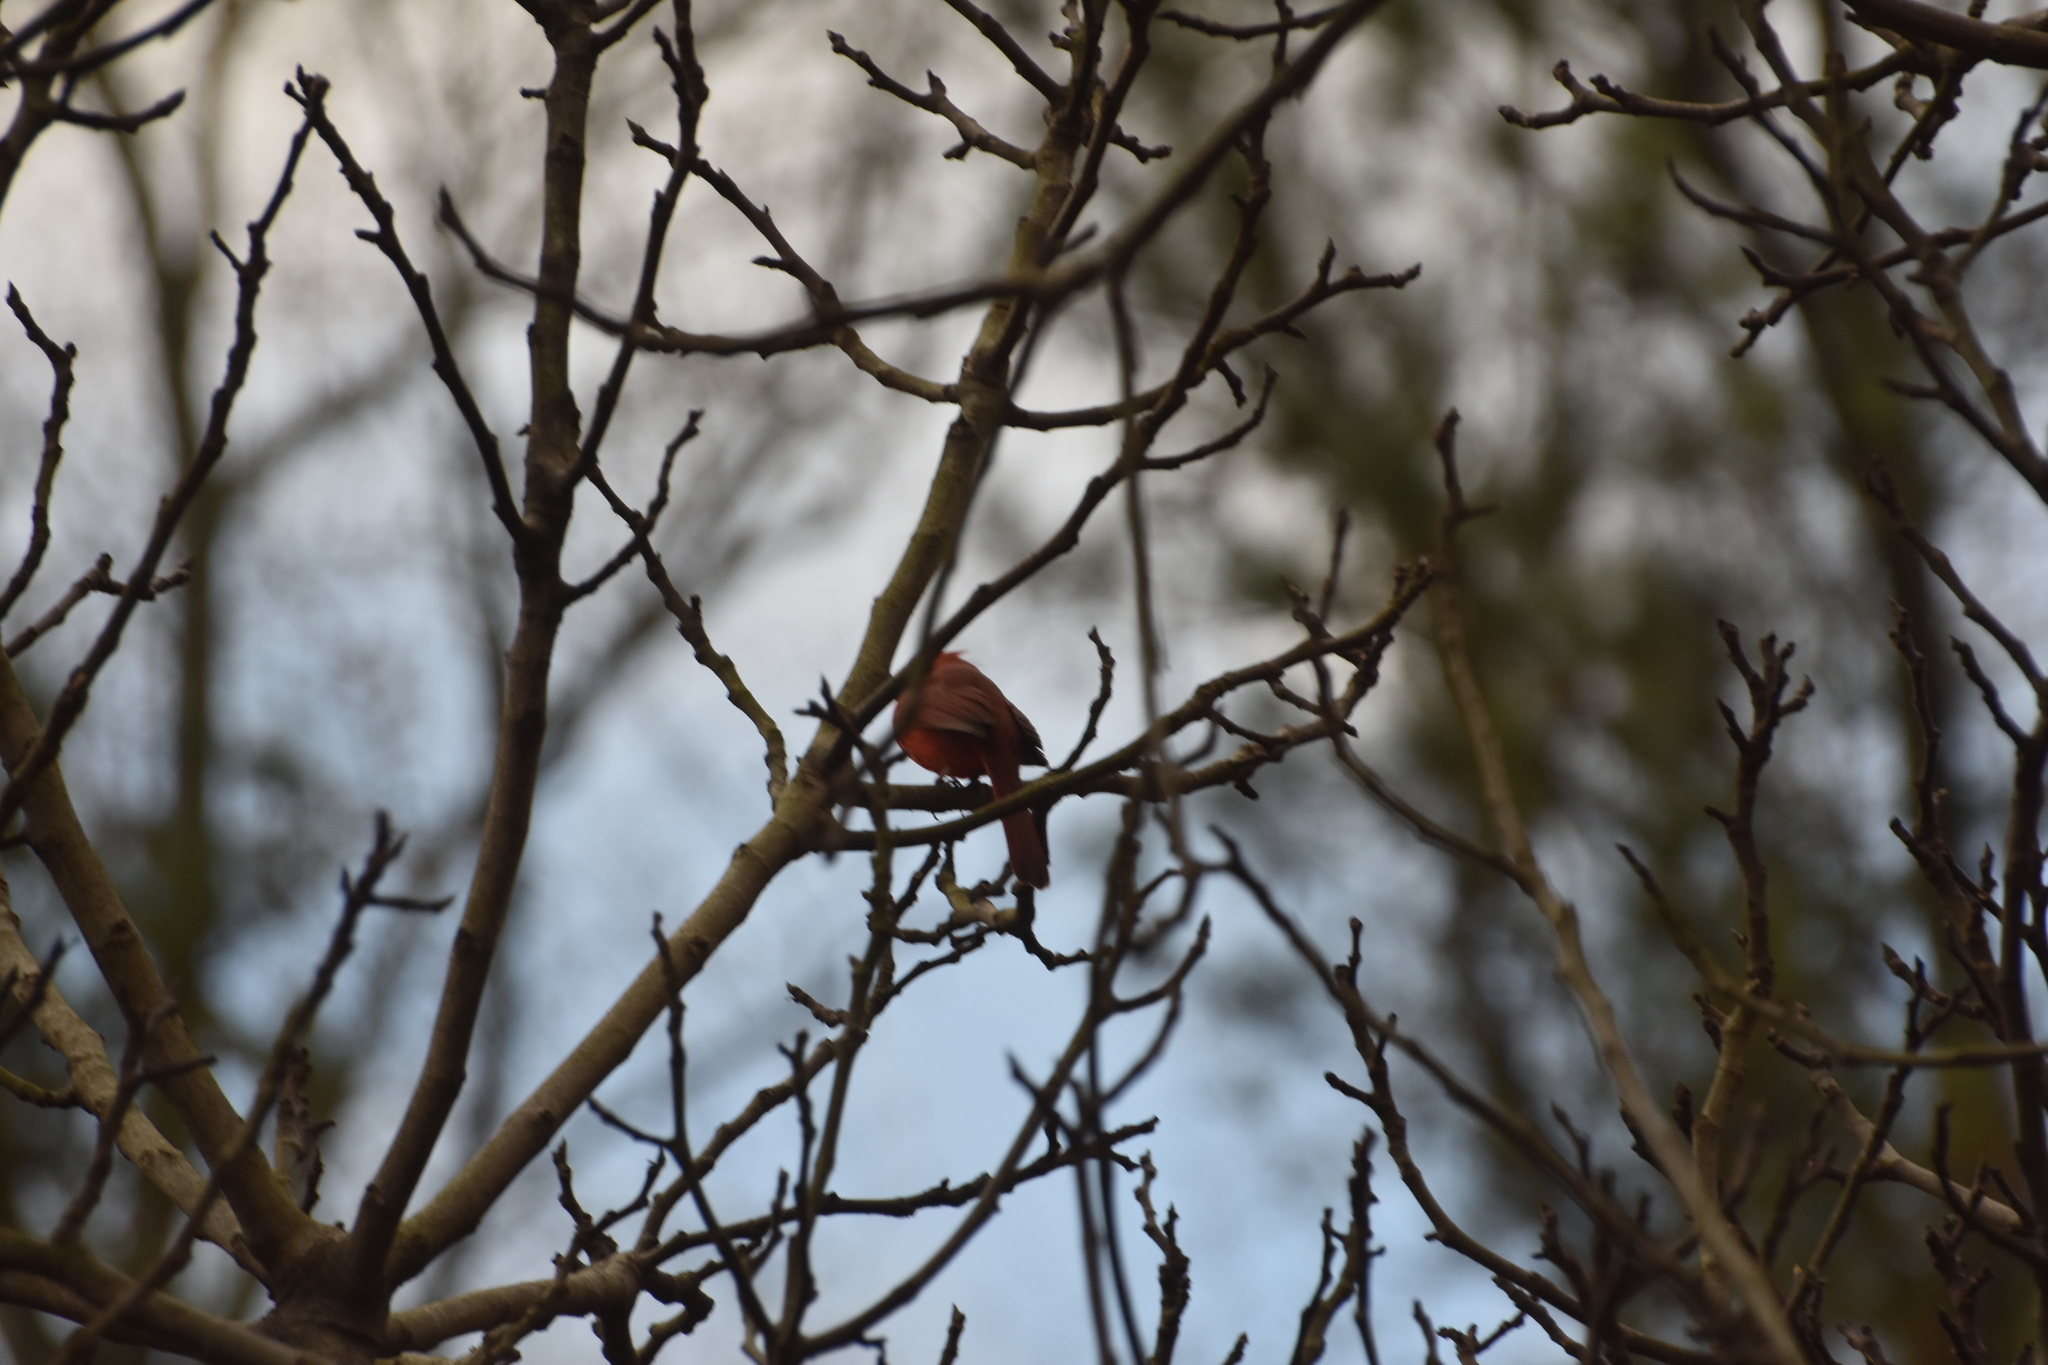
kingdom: Animalia
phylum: Chordata
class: Aves
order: Passeriformes
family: Cardinalidae
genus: Cardinalis
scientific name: Cardinalis cardinalis
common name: Northern cardinal
